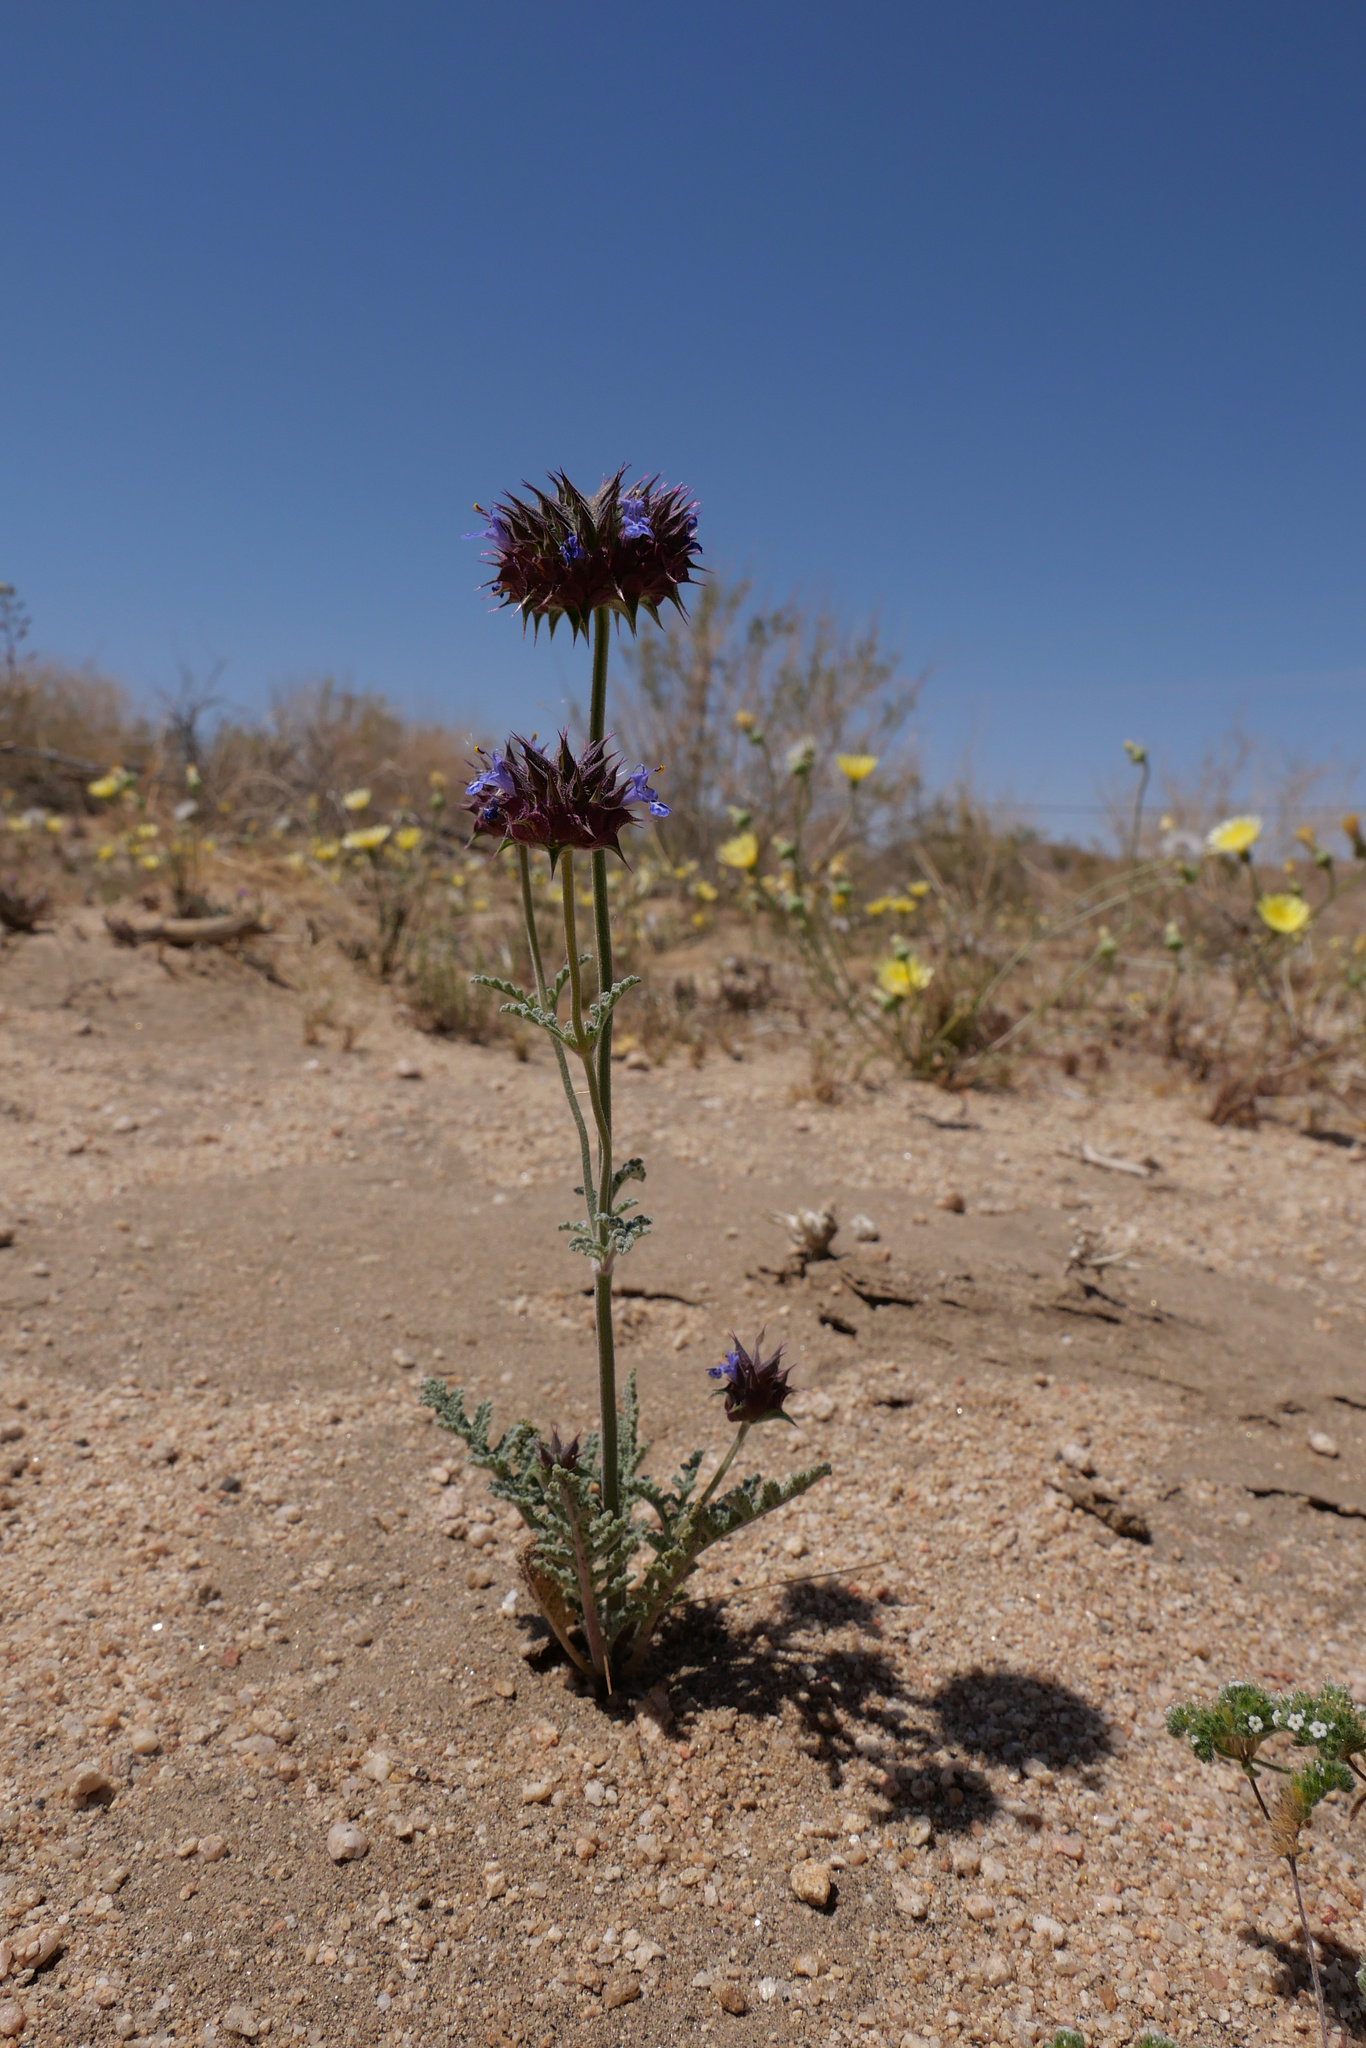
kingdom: Plantae
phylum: Tracheophyta
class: Magnoliopsida
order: Lamiales
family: Lamiaceae
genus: Salvia
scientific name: Salvia columbariae
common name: Chia
